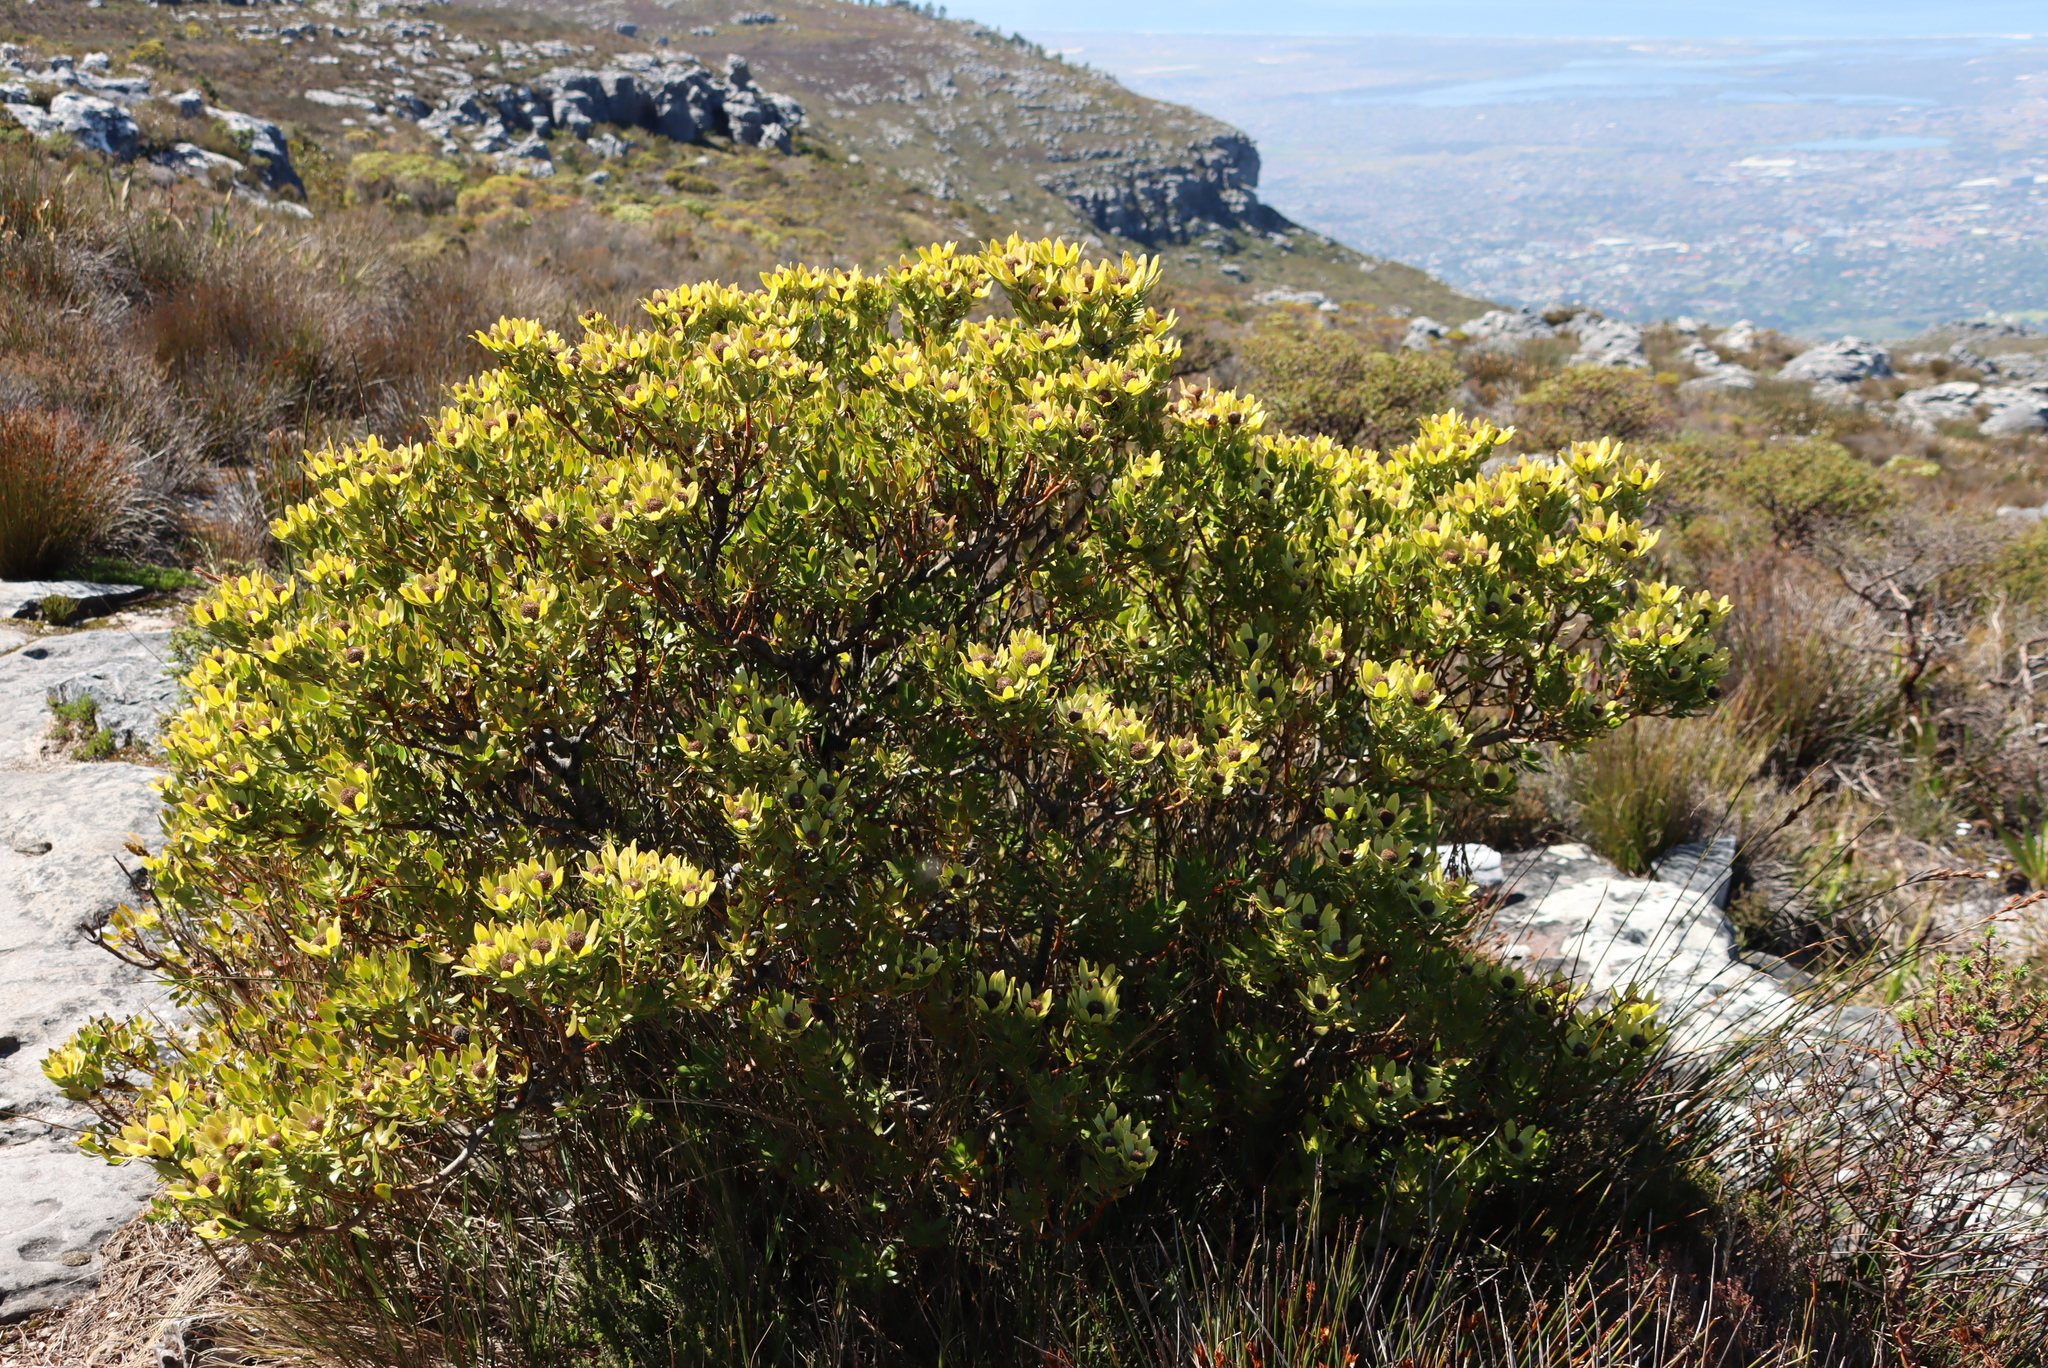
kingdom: Plantae
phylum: Tracheophyta
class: Magnoliopsida
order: Proteales
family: Proteaceae
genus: Leucadendron
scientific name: Leucadendron strobilinum
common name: Mountain rose
